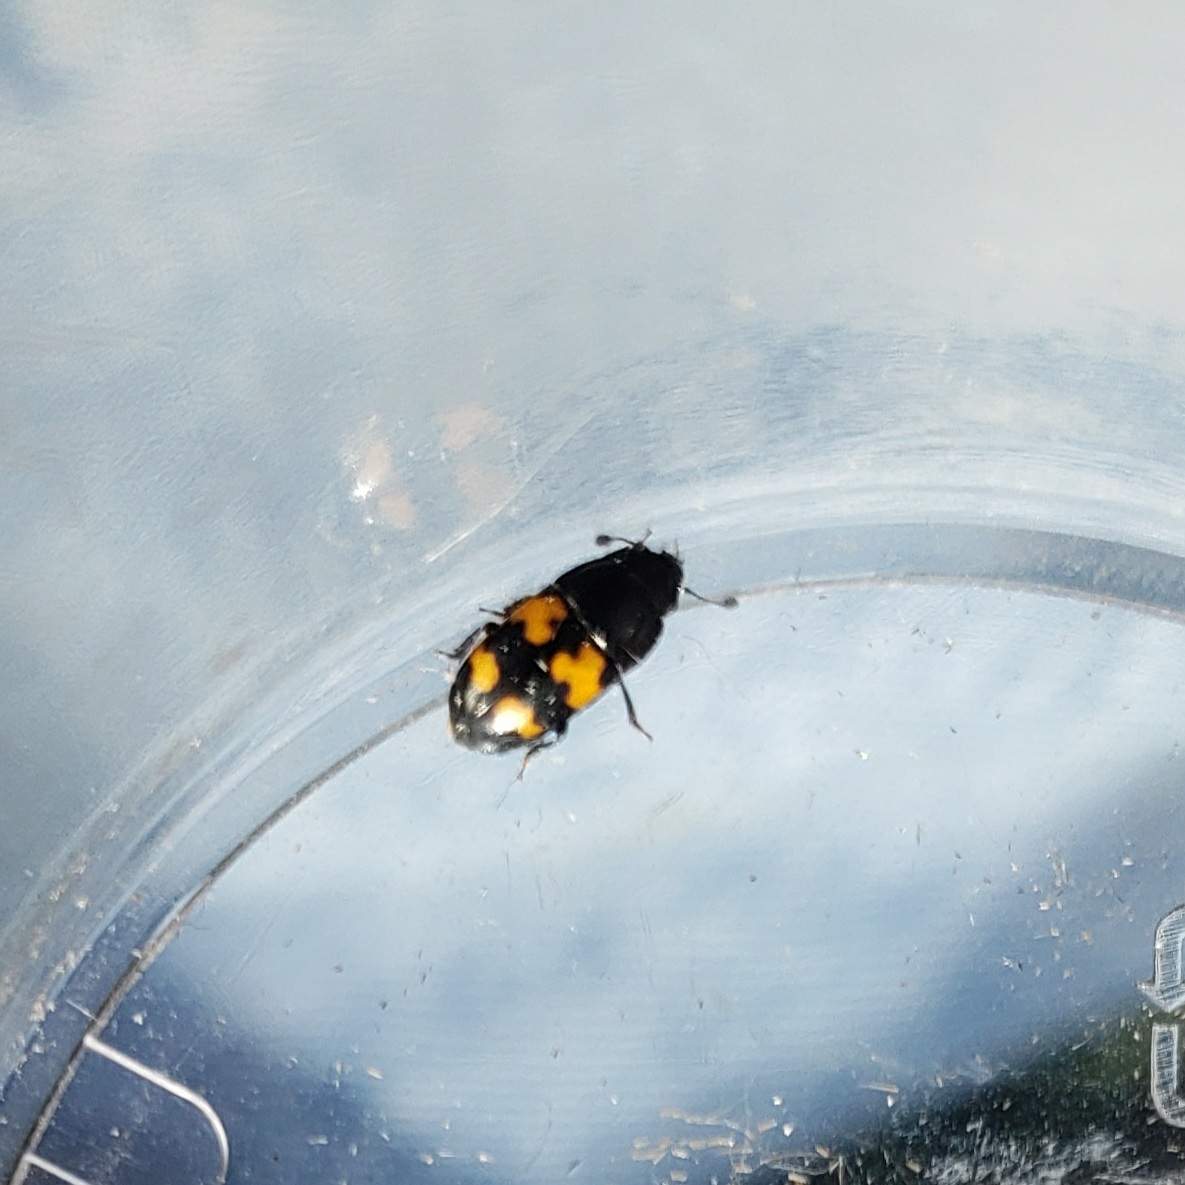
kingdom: Animalia
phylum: Arthropoda
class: Insecta
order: Coleoptera
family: Nitidulidae
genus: Glischrochilus
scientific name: Glischrochilus fasciatus
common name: Picnic beetle
